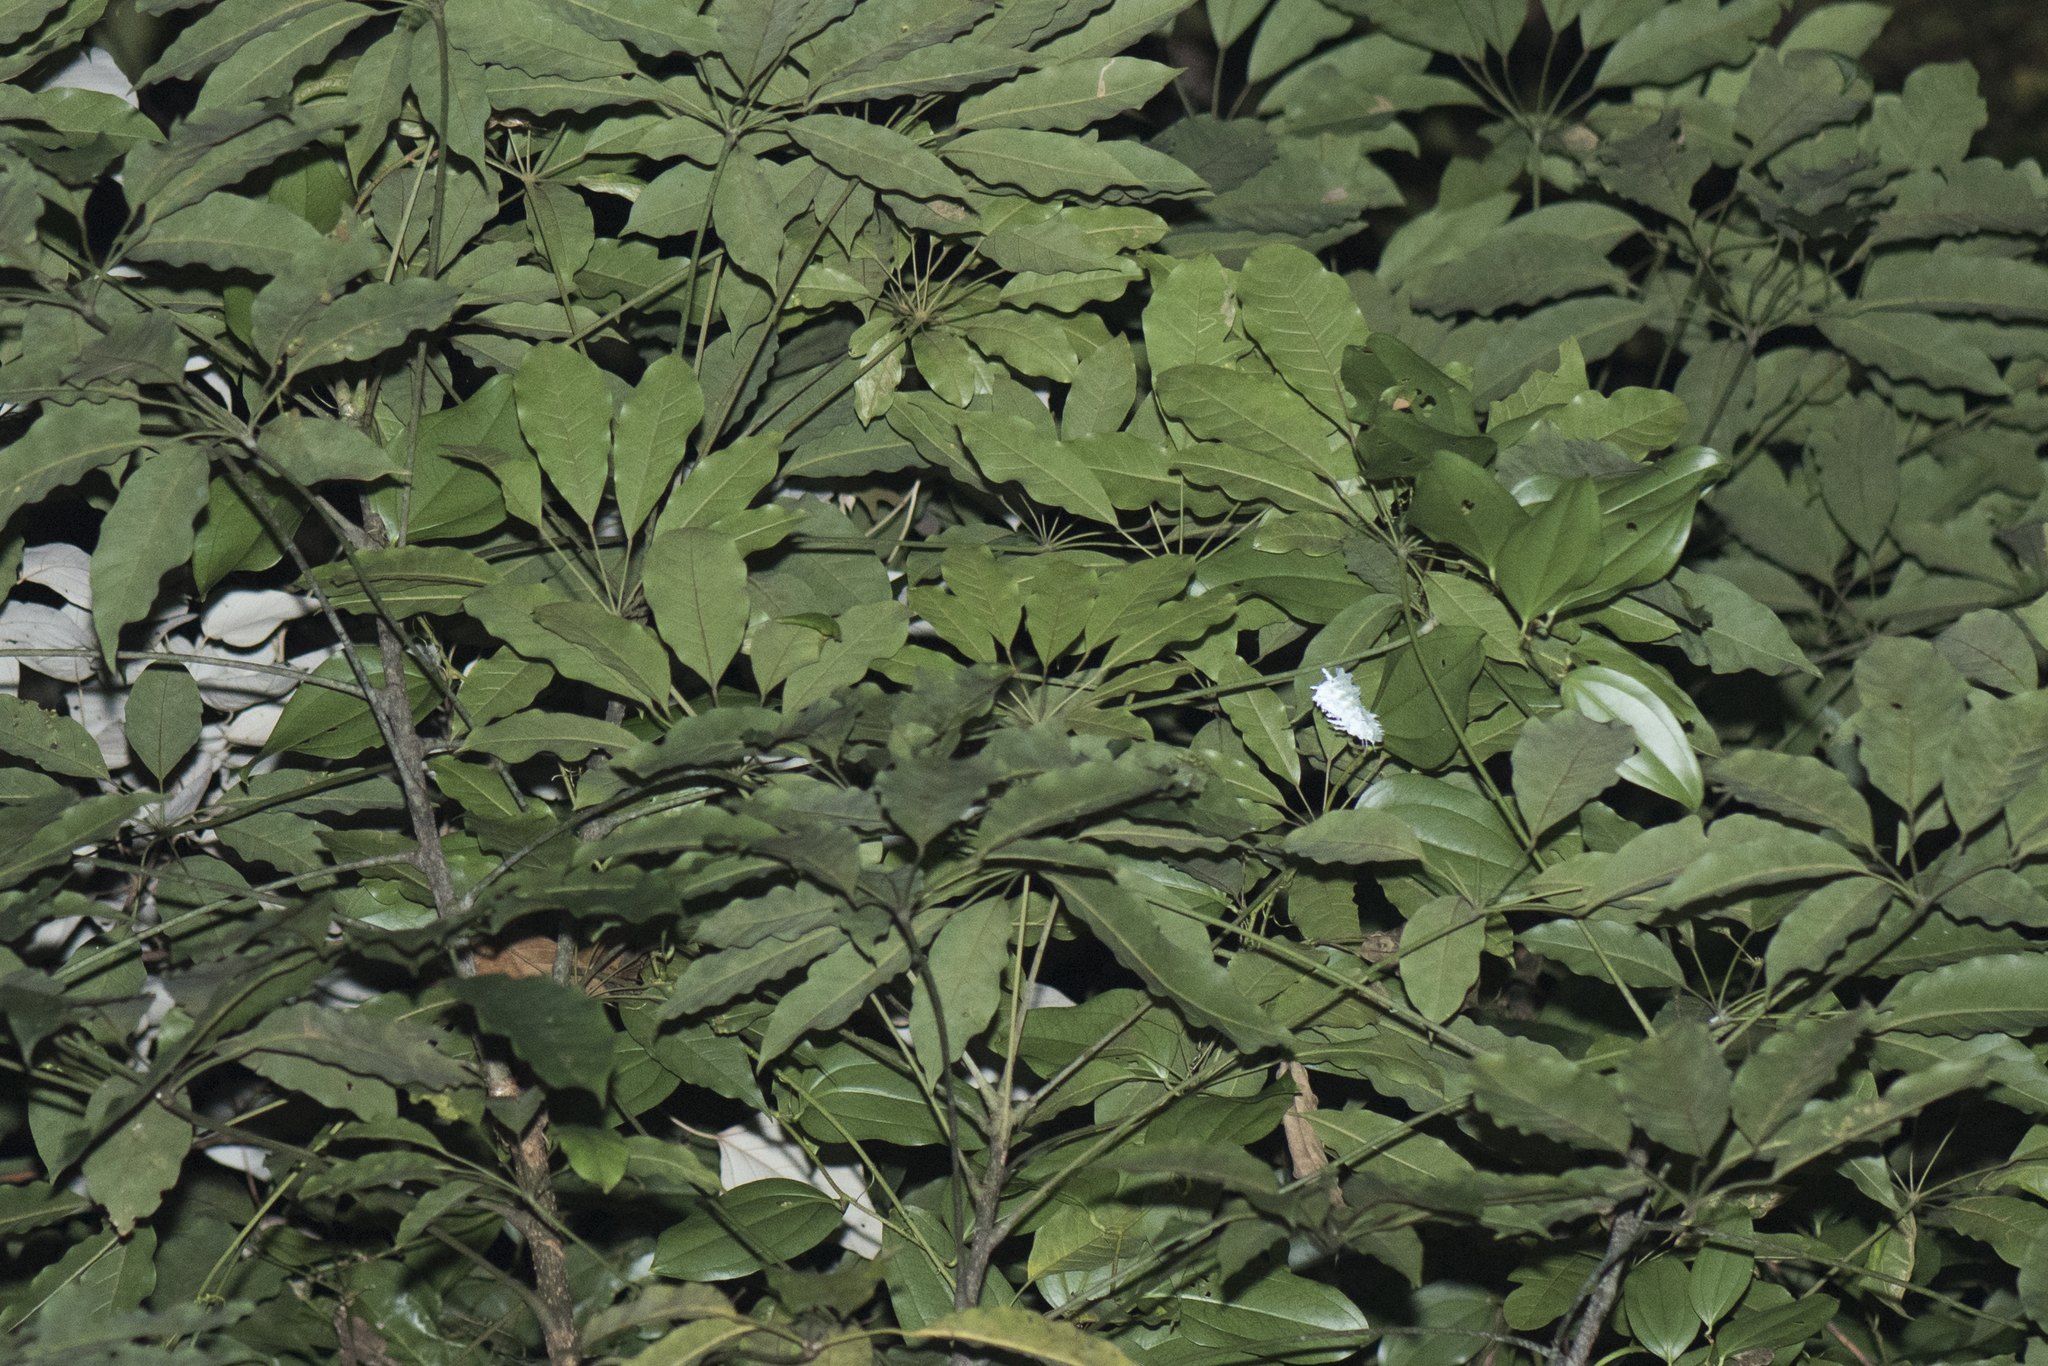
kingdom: Animalia
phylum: Arthropoda
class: Insecta
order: Lepidoptera
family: Saturniidae
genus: Attacus
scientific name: Attacus atlas
